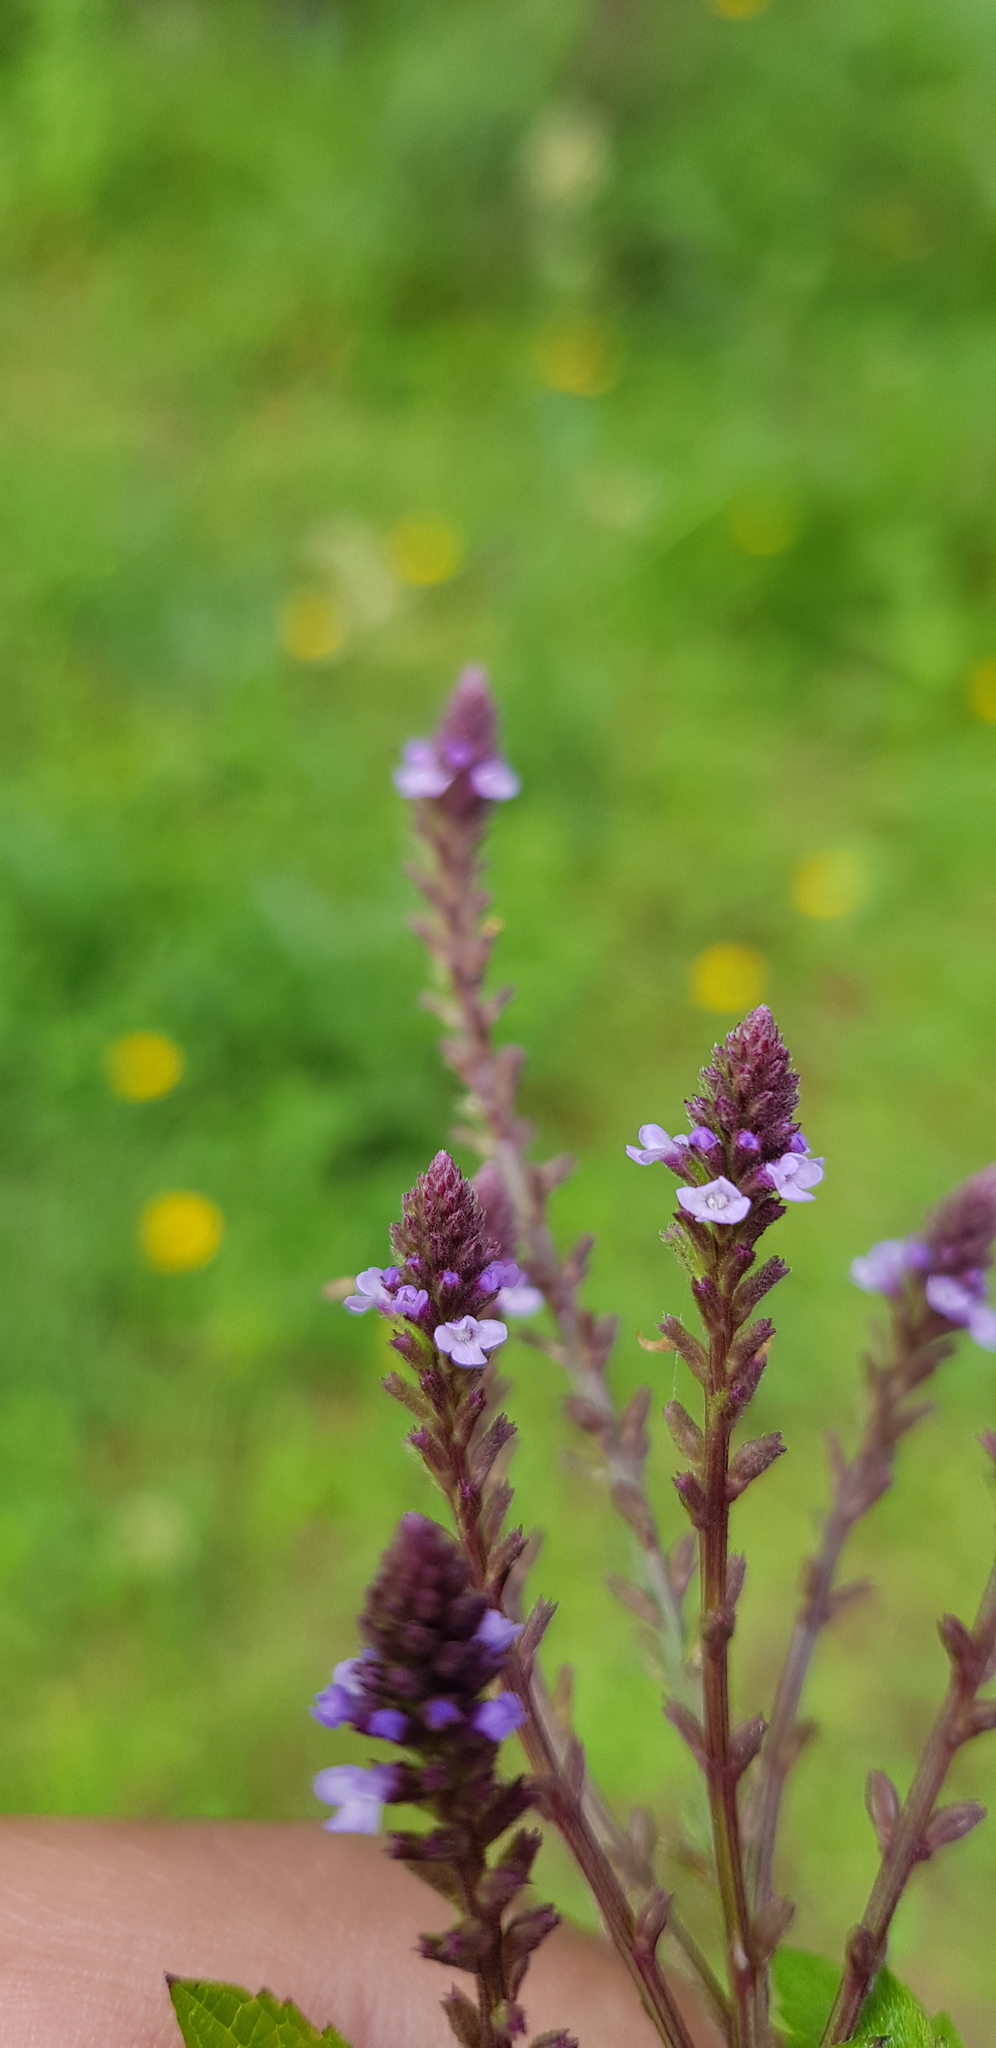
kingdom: Plantae
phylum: Tracheophyta
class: Magnoliopsida
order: Lamiales
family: Verbenaceae
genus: Verbena
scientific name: Verbena carolina
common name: Carolina vervain
